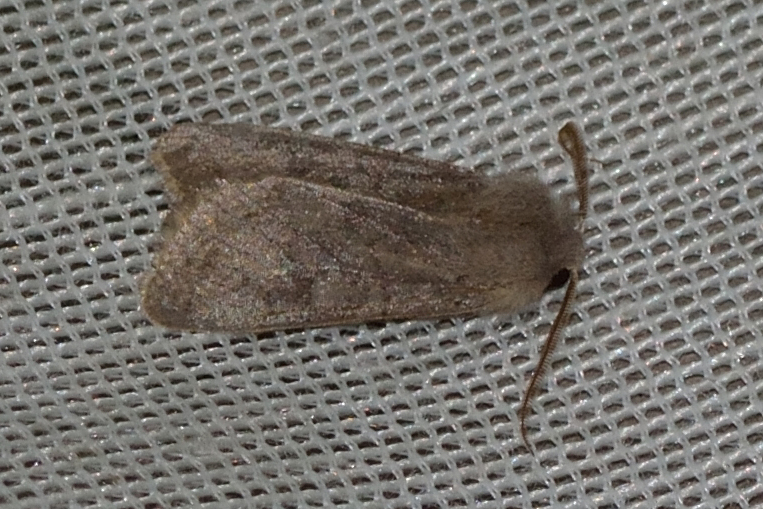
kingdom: Animalia
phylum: Arthropoda
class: Insecta
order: Lepidoptera
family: Noctuidae
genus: Orthosia
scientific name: Orthosia populeti
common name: Lead-coloured drab
